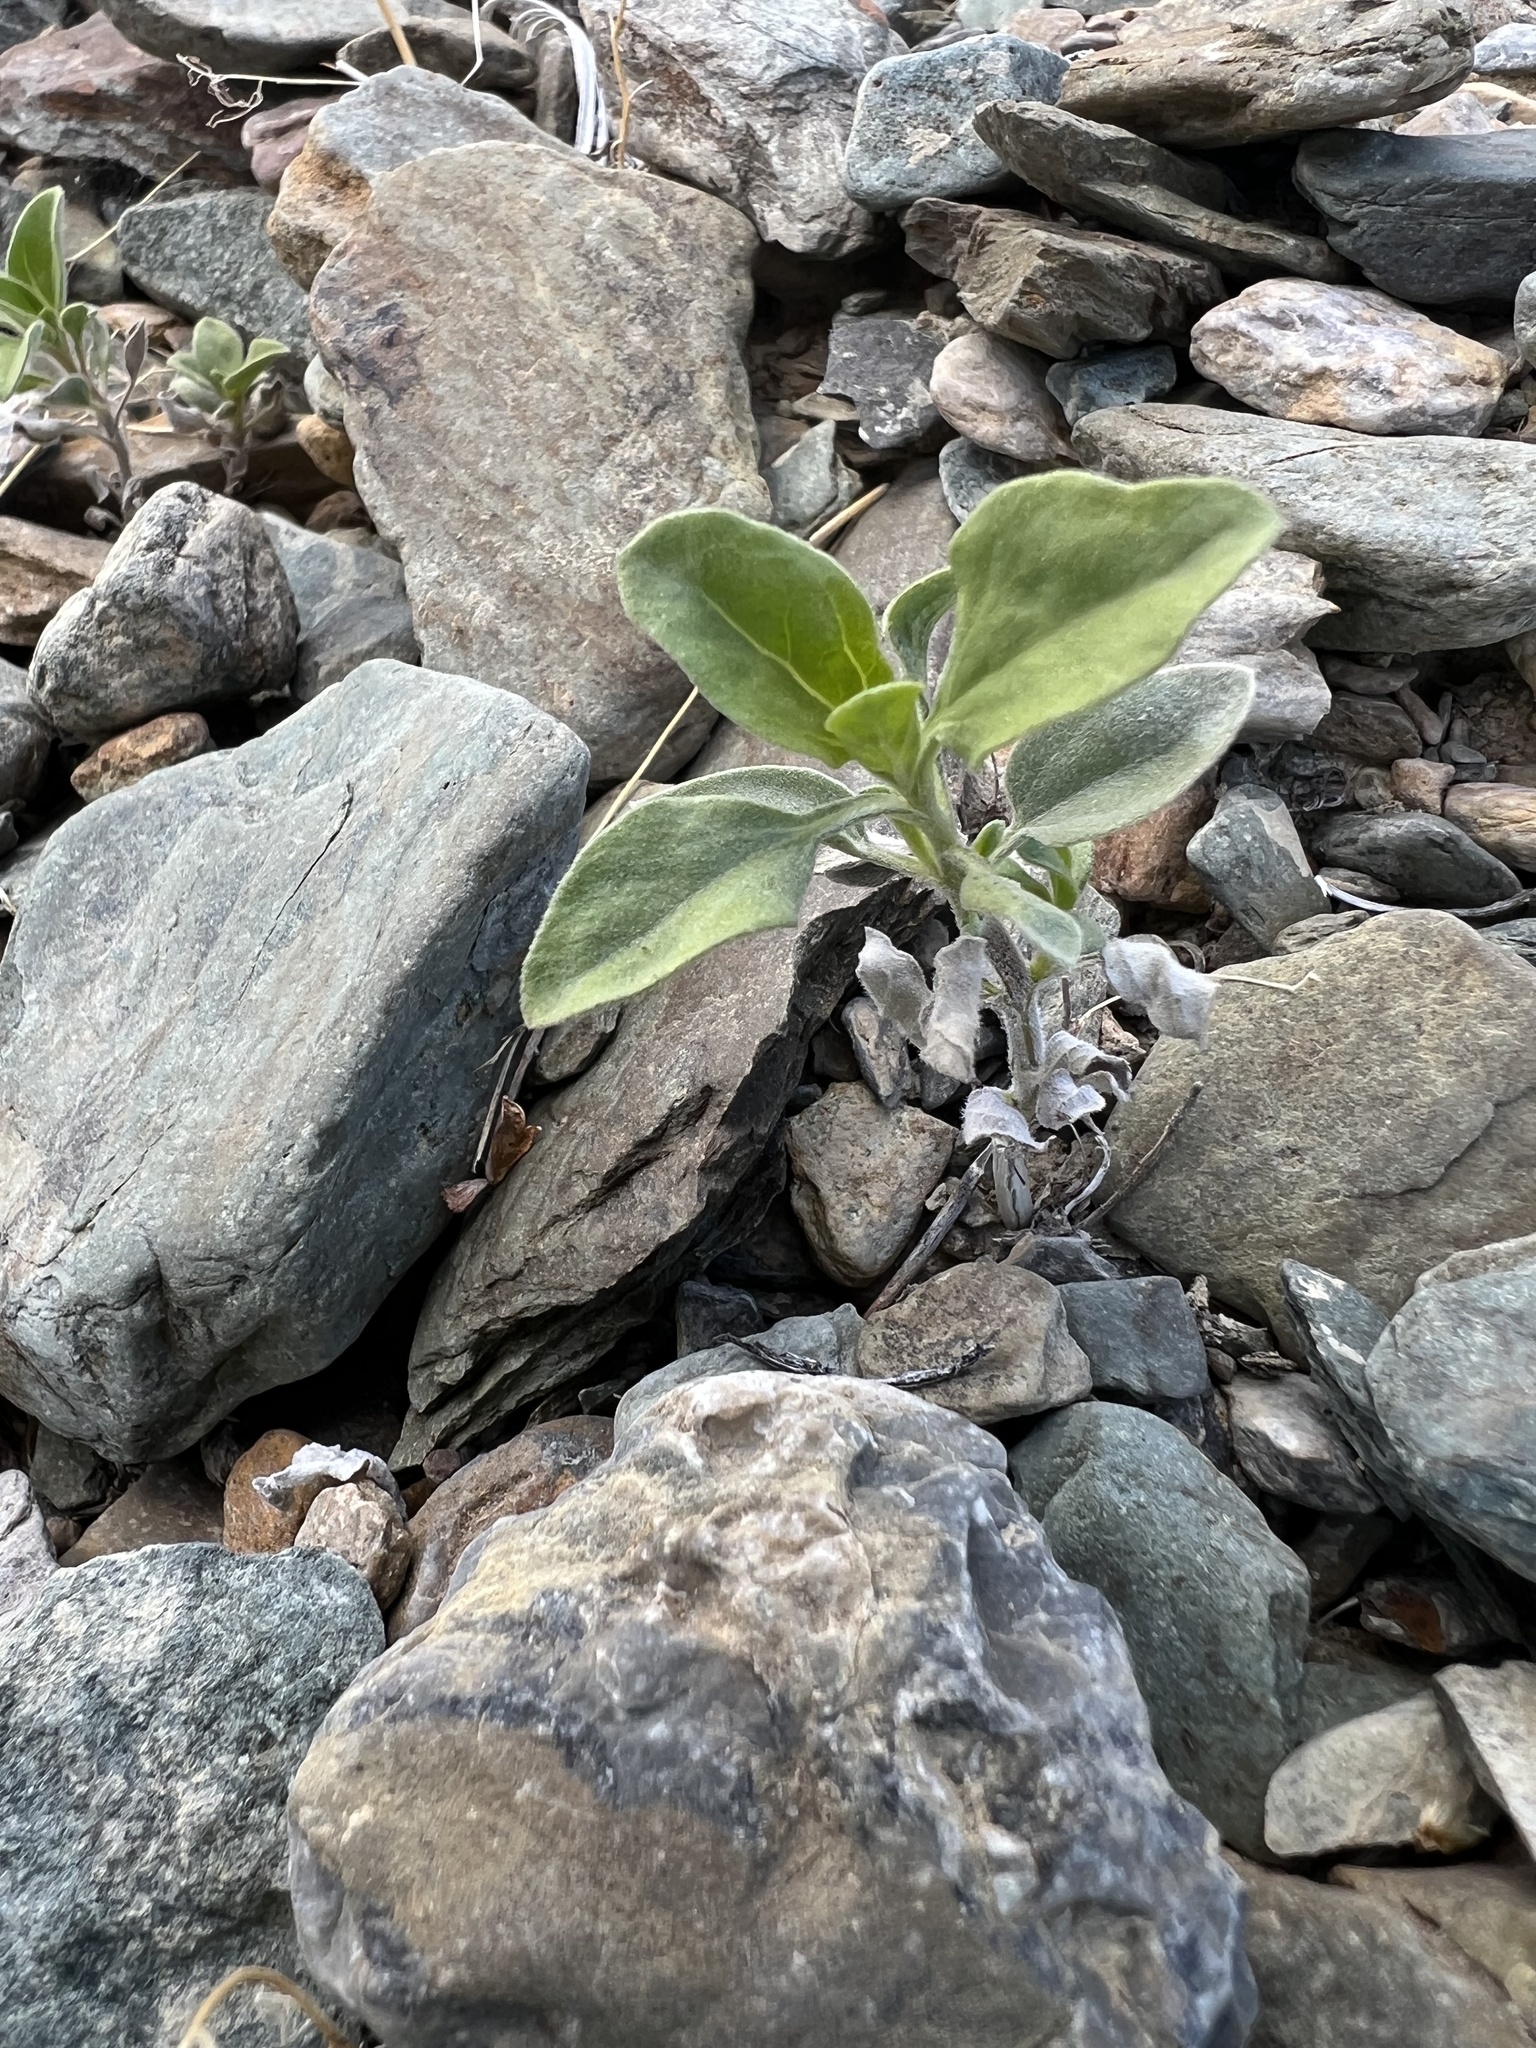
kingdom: Plantae
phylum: Tracheophyta
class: Magnoliopsida
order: Asterales
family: Asteraceae
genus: Encelia
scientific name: Encelia actoni
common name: Acton encelia
